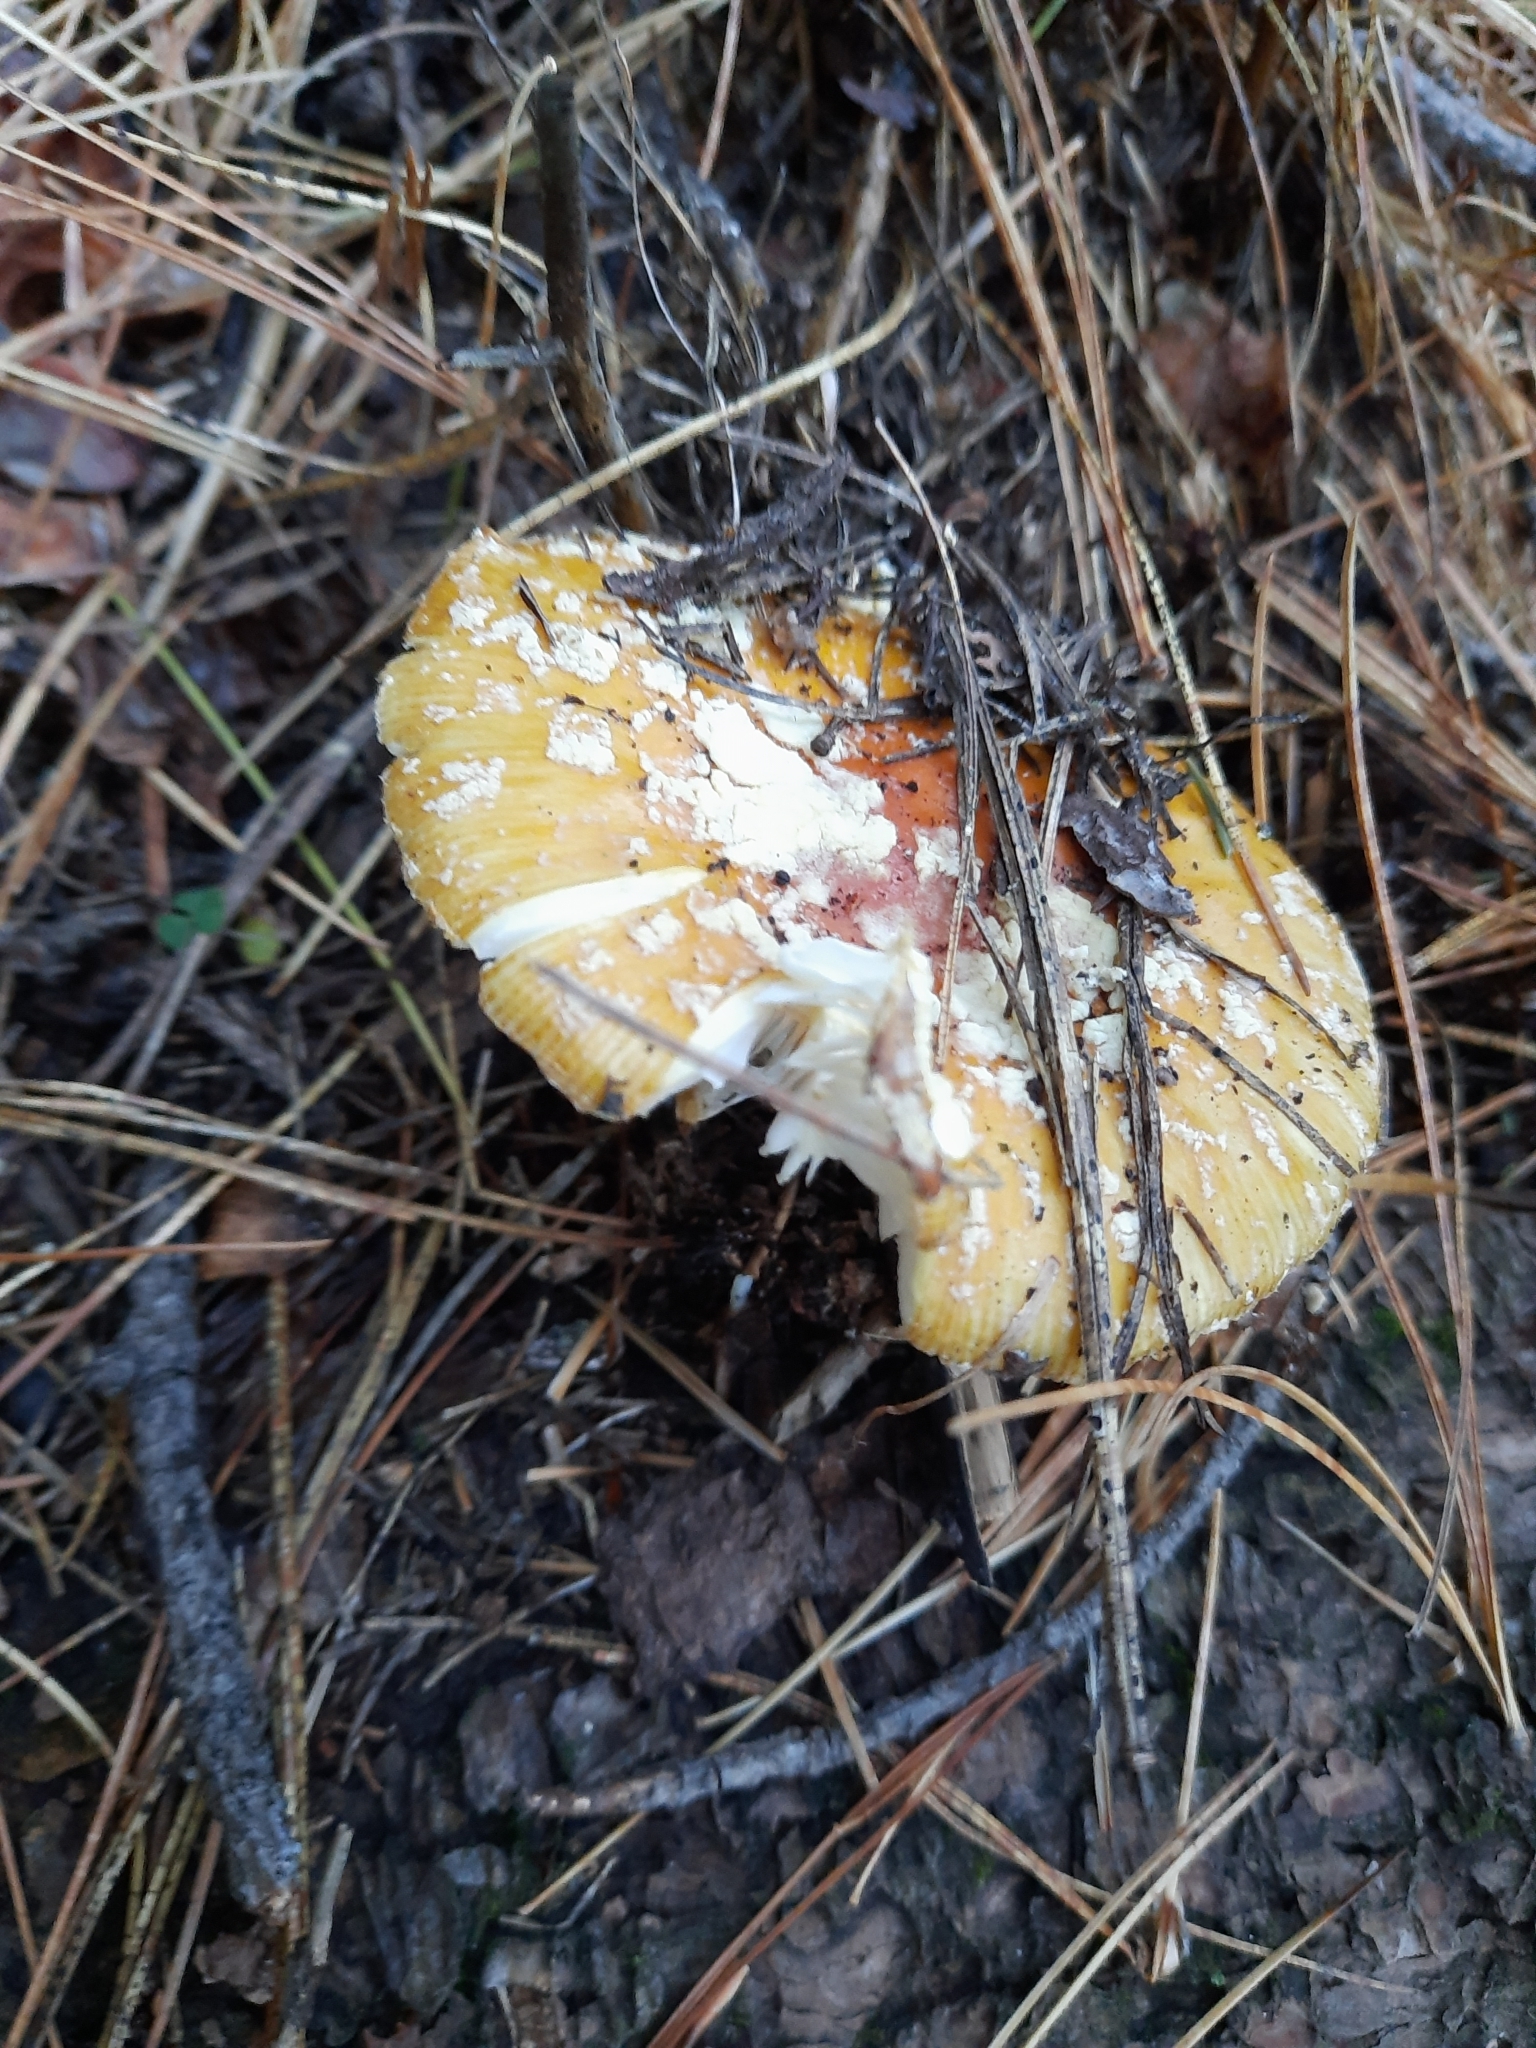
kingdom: Fungi
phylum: Basidiomycota
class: Agaricomycetes
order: Agaricales
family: Amanitaceae
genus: Amanita
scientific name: Amanita muscaria
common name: Fly agaric
